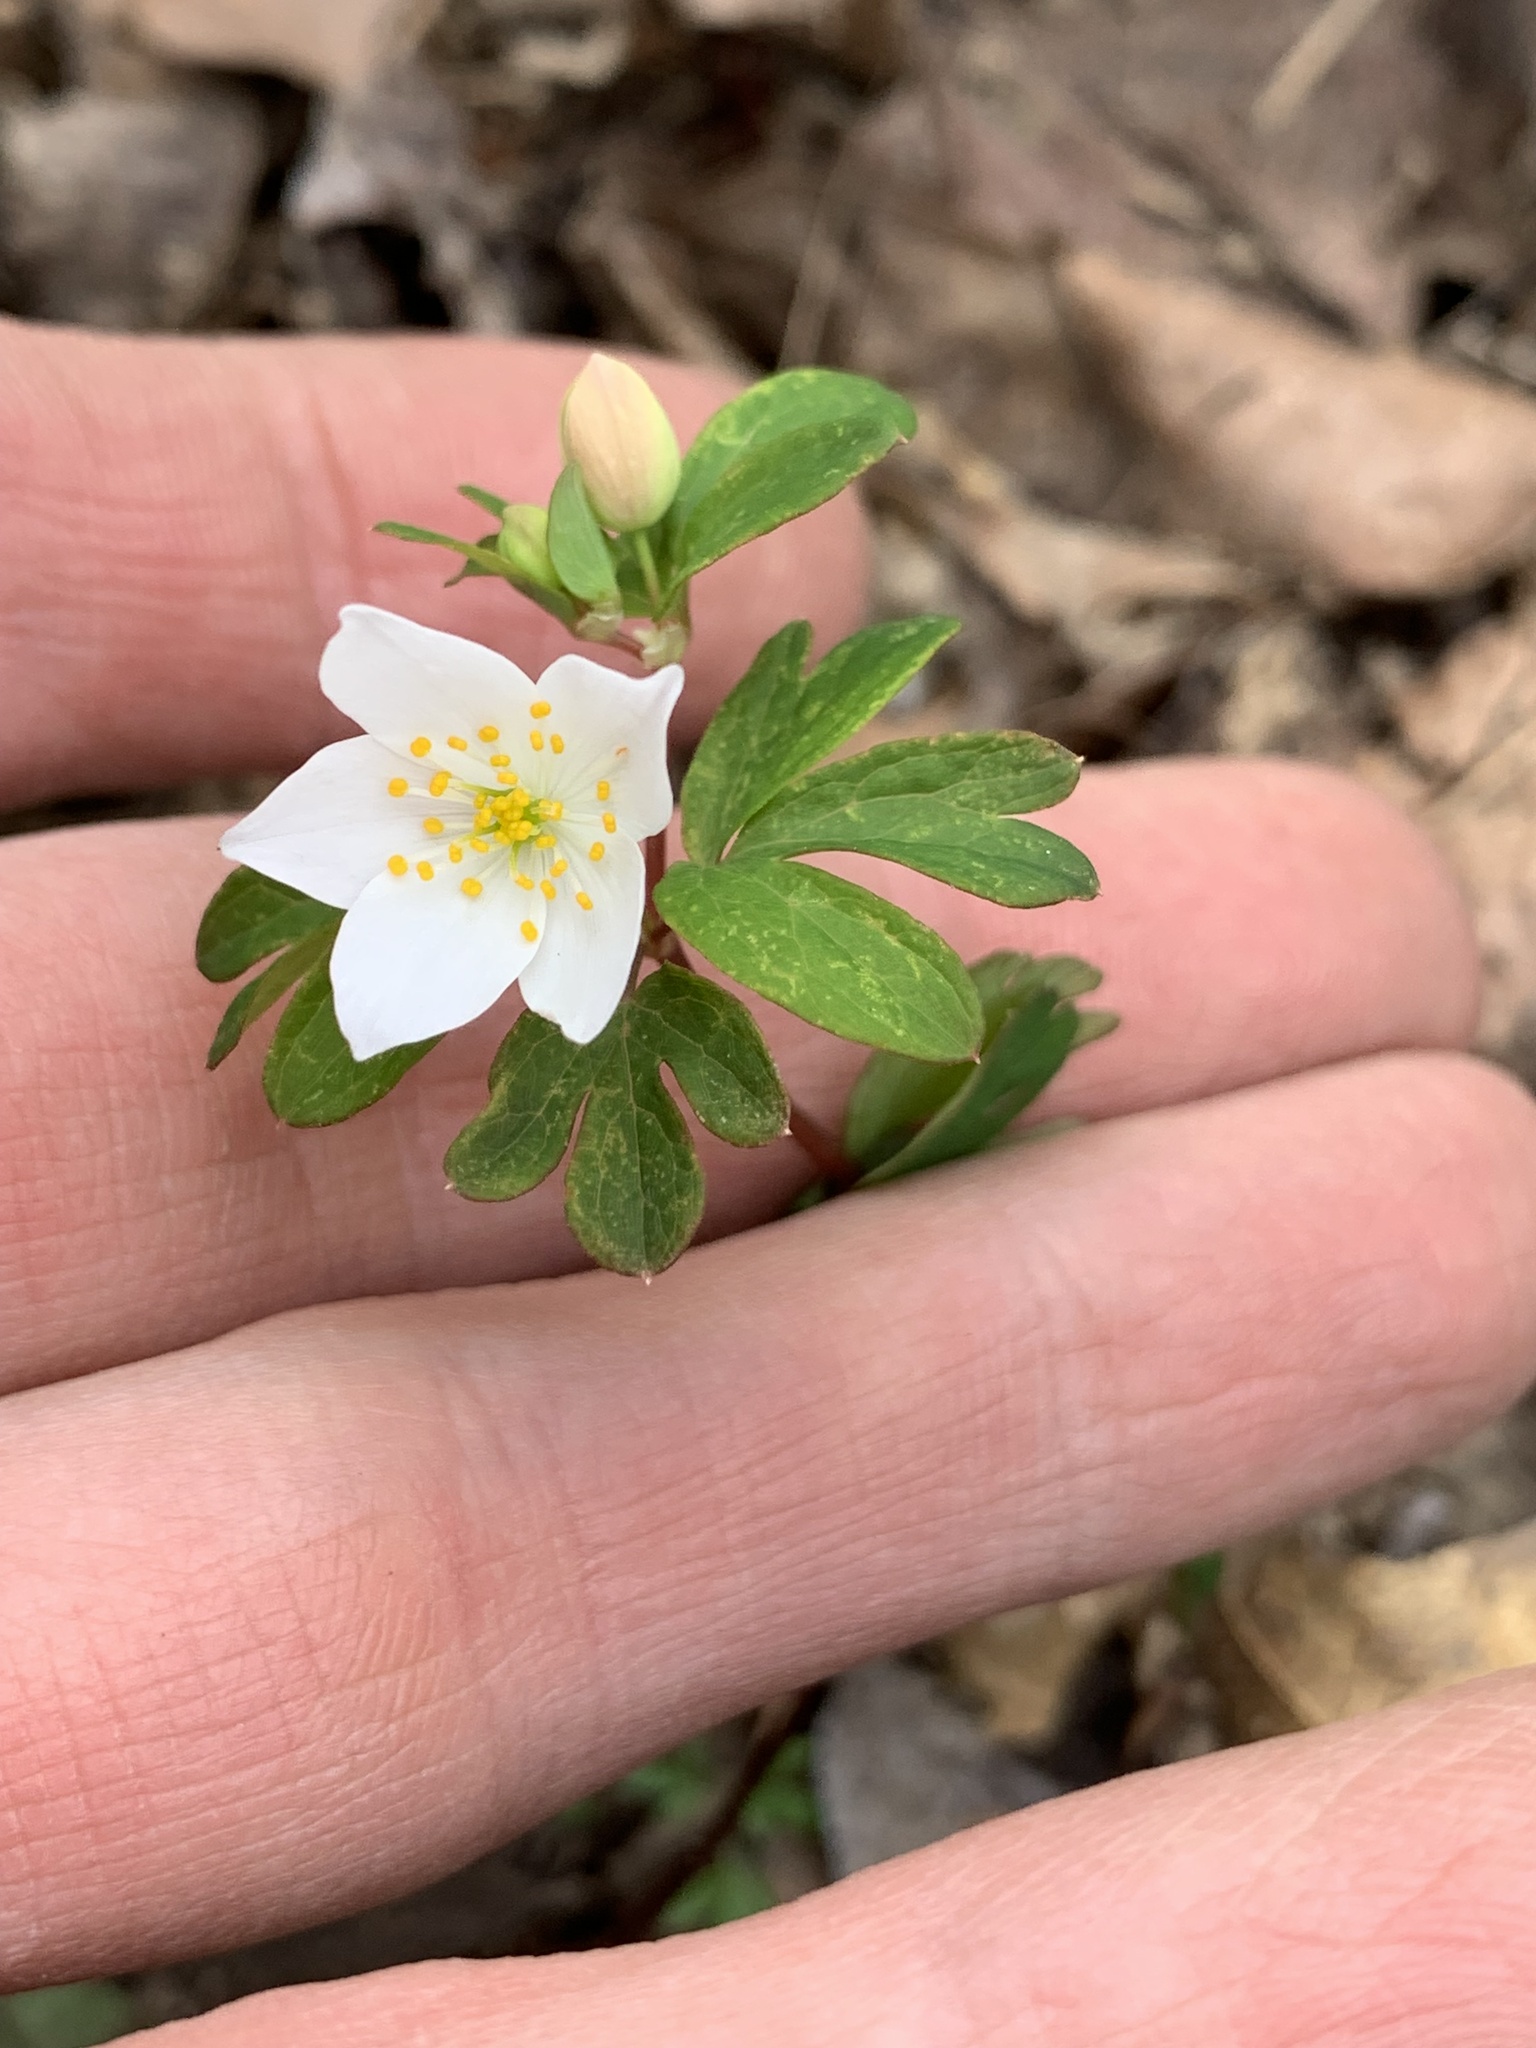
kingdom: Plantae
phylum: Tracheophyta
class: Magnoliopsida
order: Ranunculales
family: Ranunculaceae
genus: Enemion
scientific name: Enemion biternatum
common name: Eastern false rue-anemone
